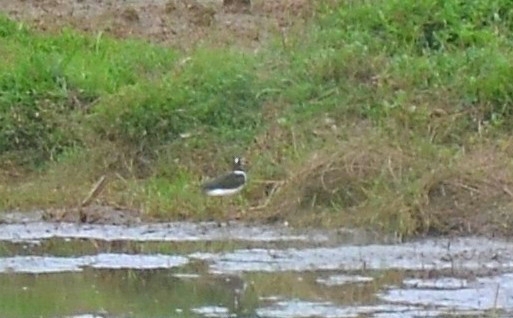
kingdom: Animalia
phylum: Chordata
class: Aves
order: Charadriiformes
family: Rostratulidae
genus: Rostratula
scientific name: Rostratula benghalensis
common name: Greater painted-snipe
